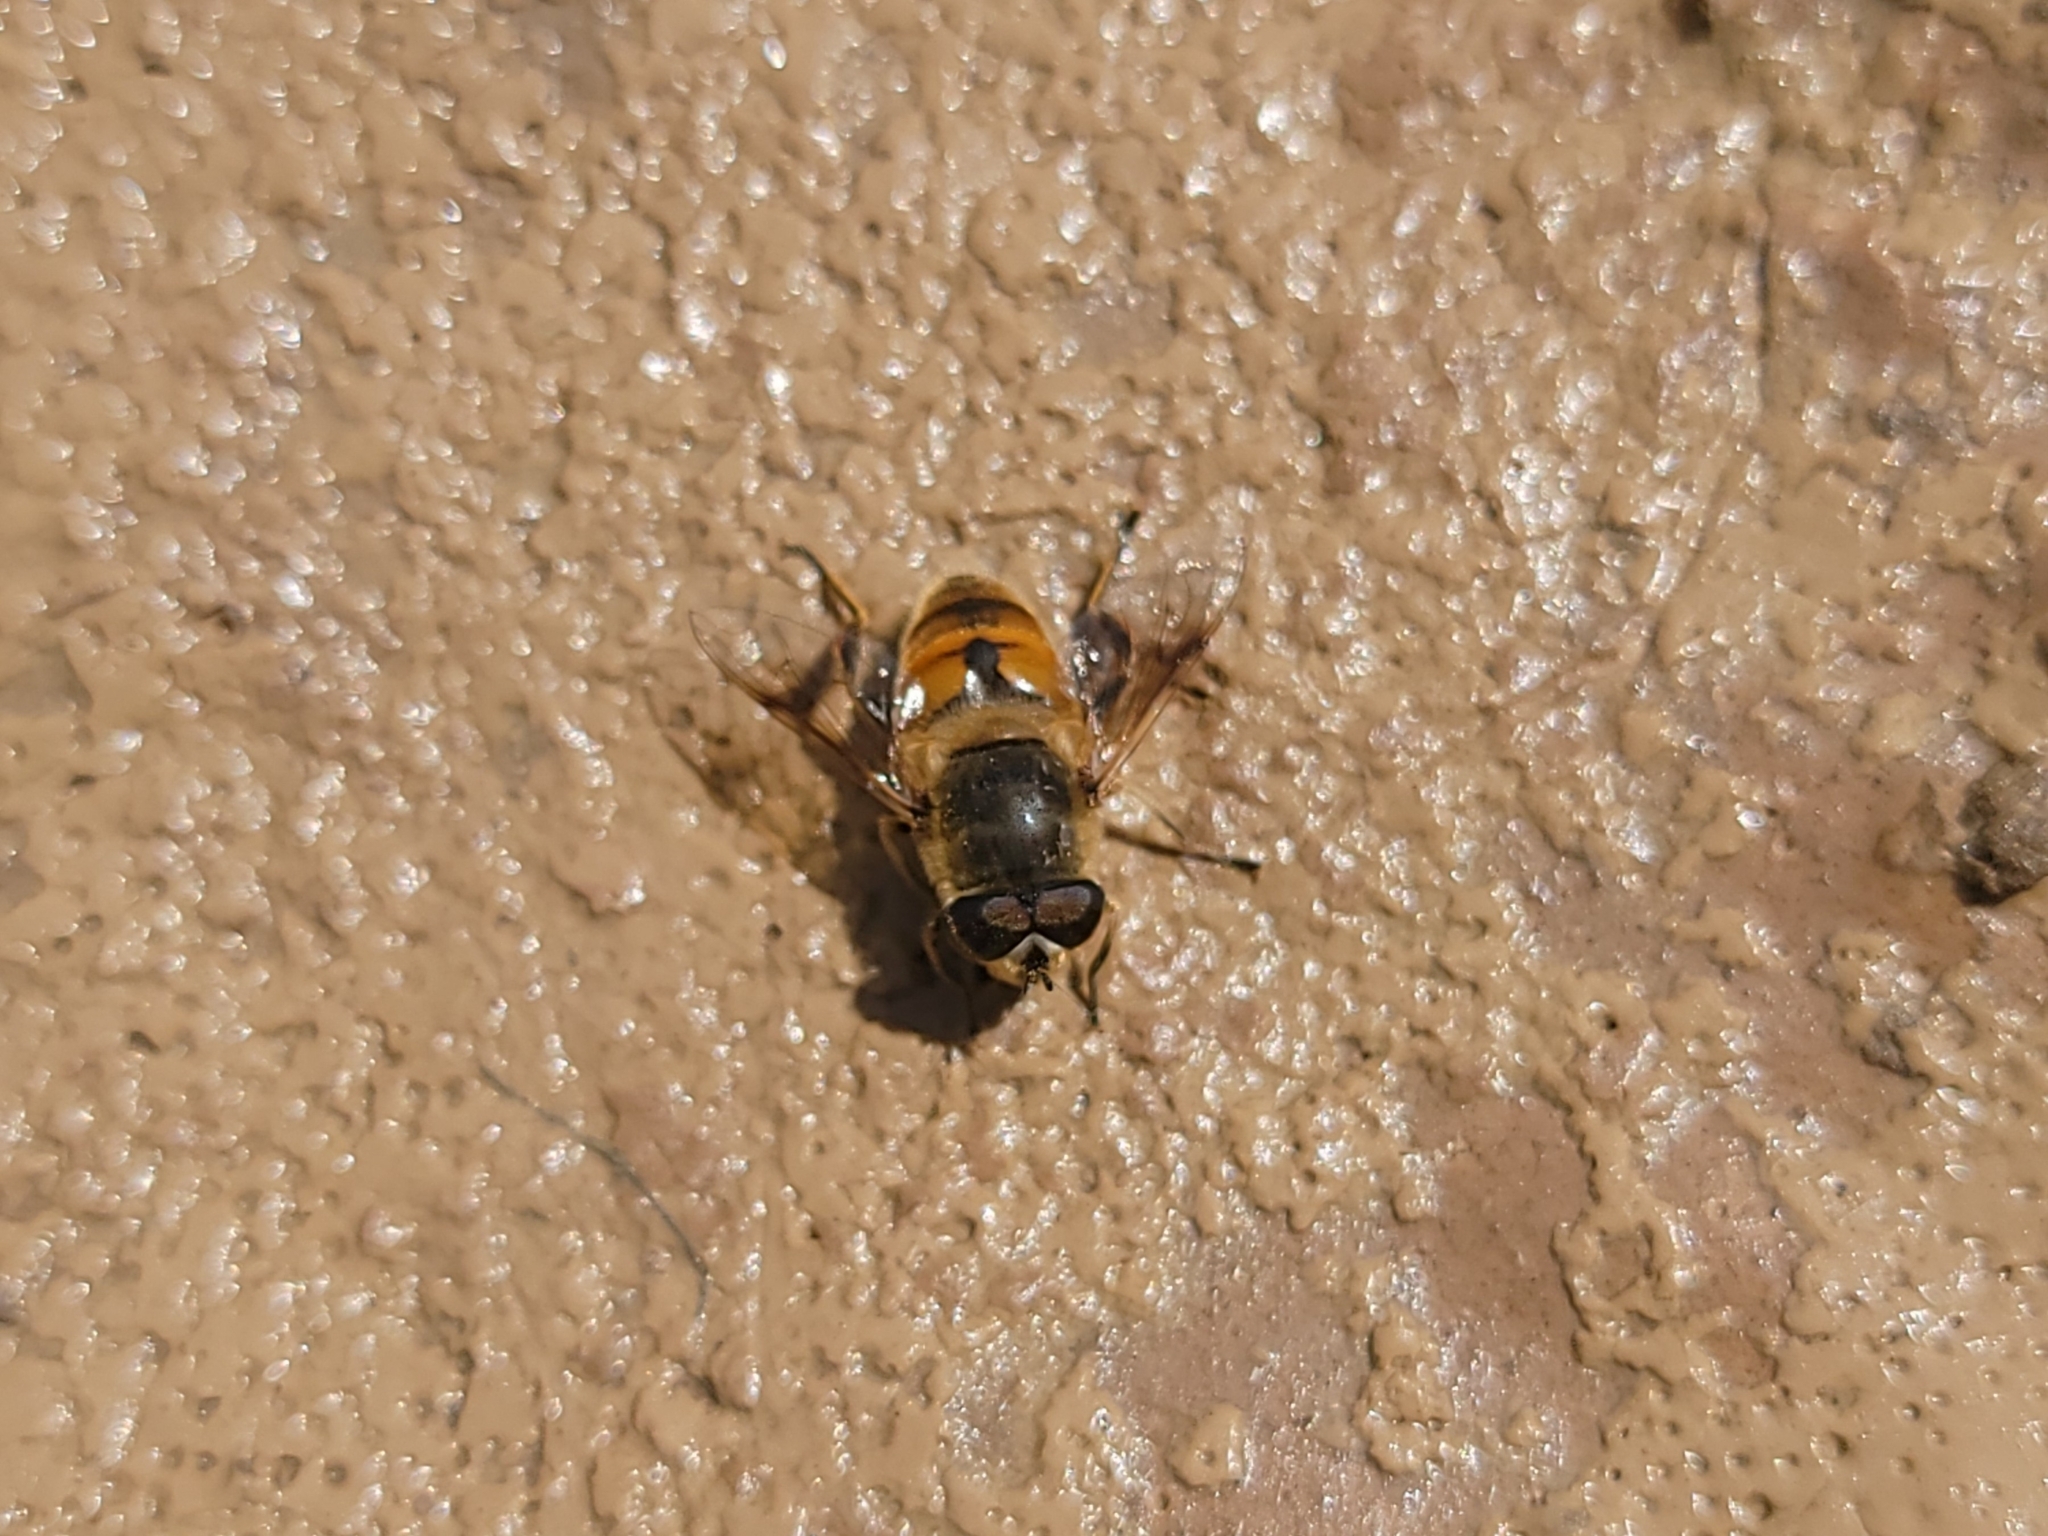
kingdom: Animalia
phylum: Arthropoda
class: Insecta
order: Diptera
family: Syrphidae
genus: Eristalis
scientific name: Eristalis tenax
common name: Drone fly
